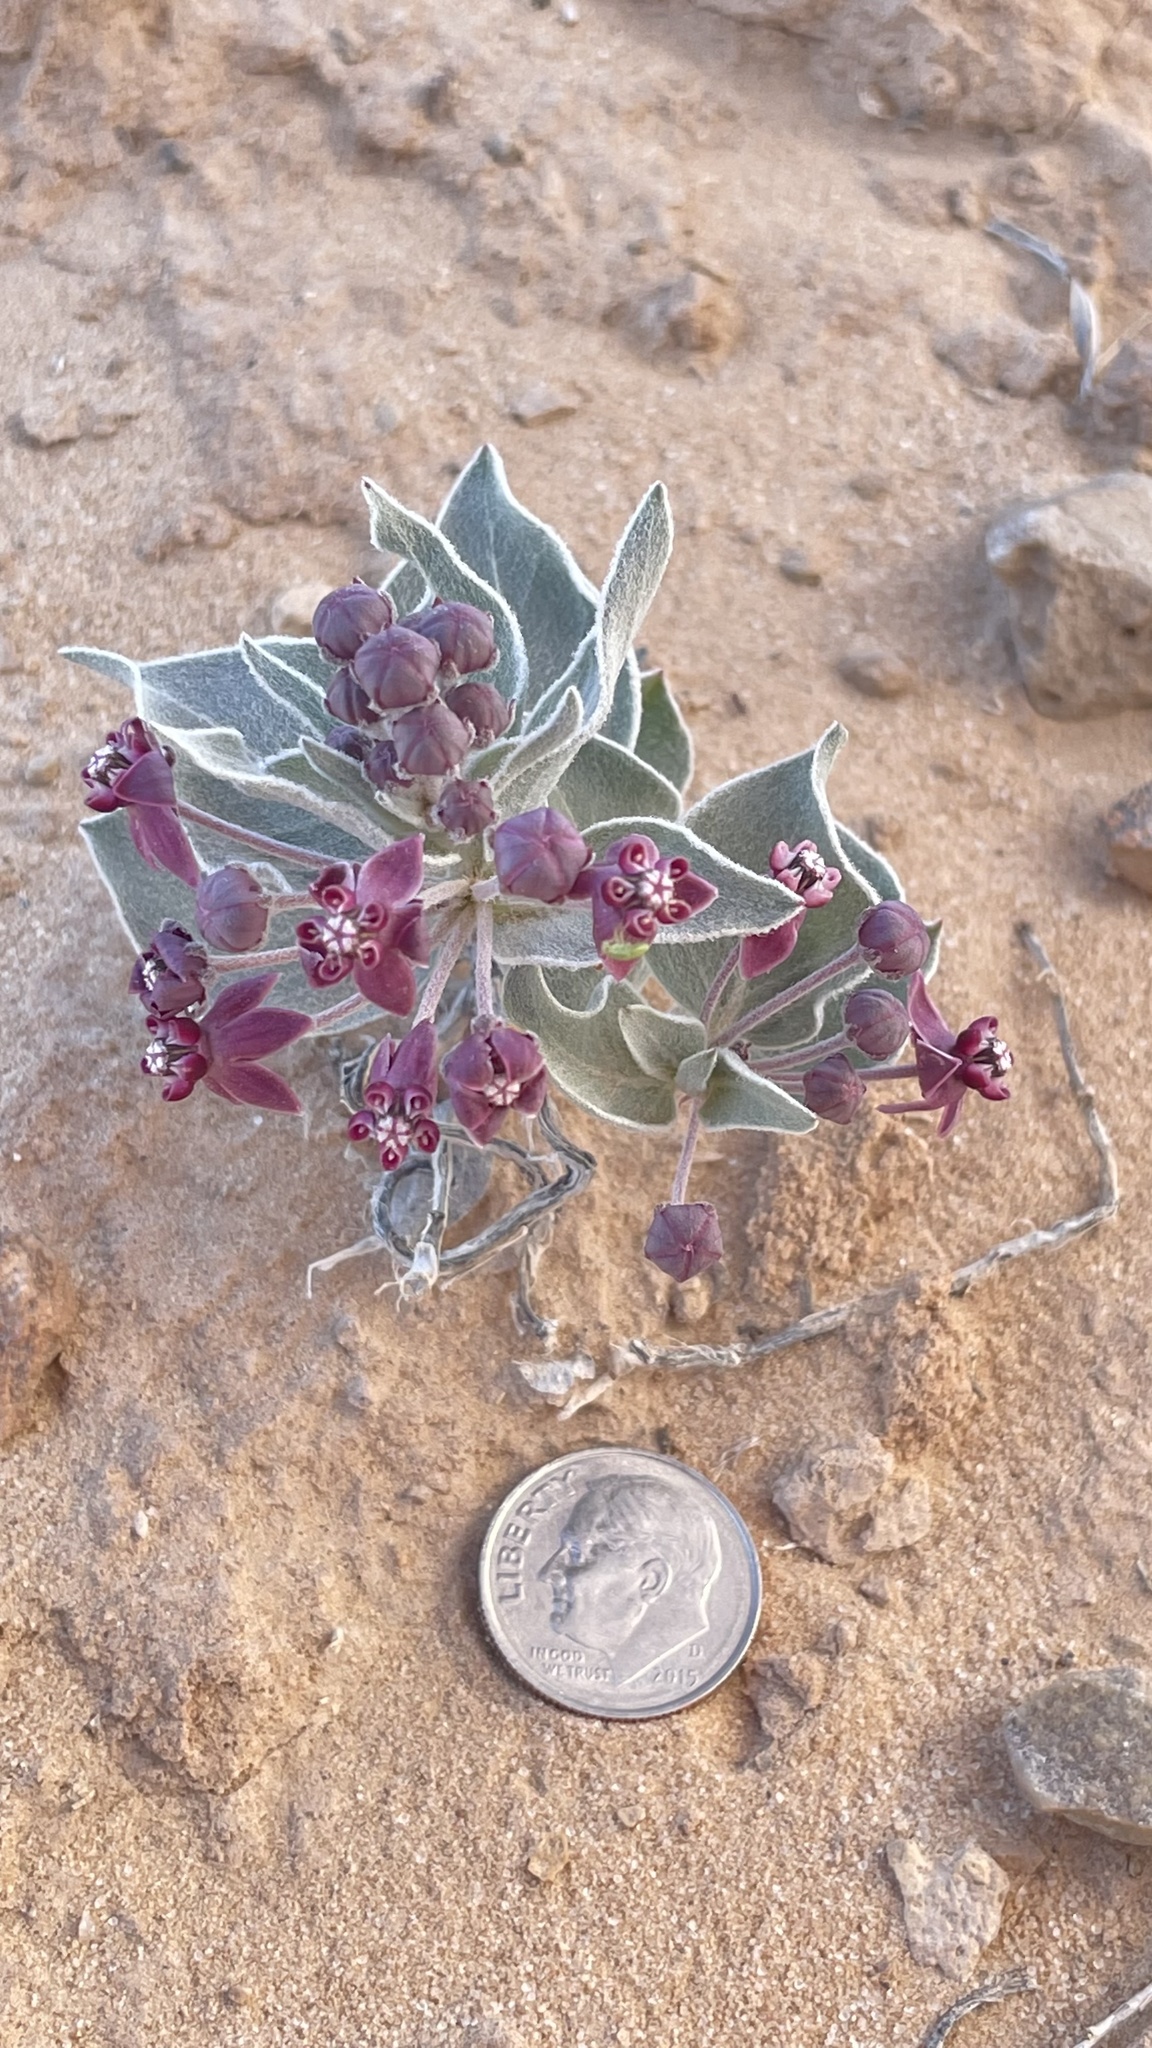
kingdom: Plantae
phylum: Tracheophyta
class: Magnoliopsida
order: Gentianales
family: Apocynaceae
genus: Asclepias
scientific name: Asclepias ruthiae
